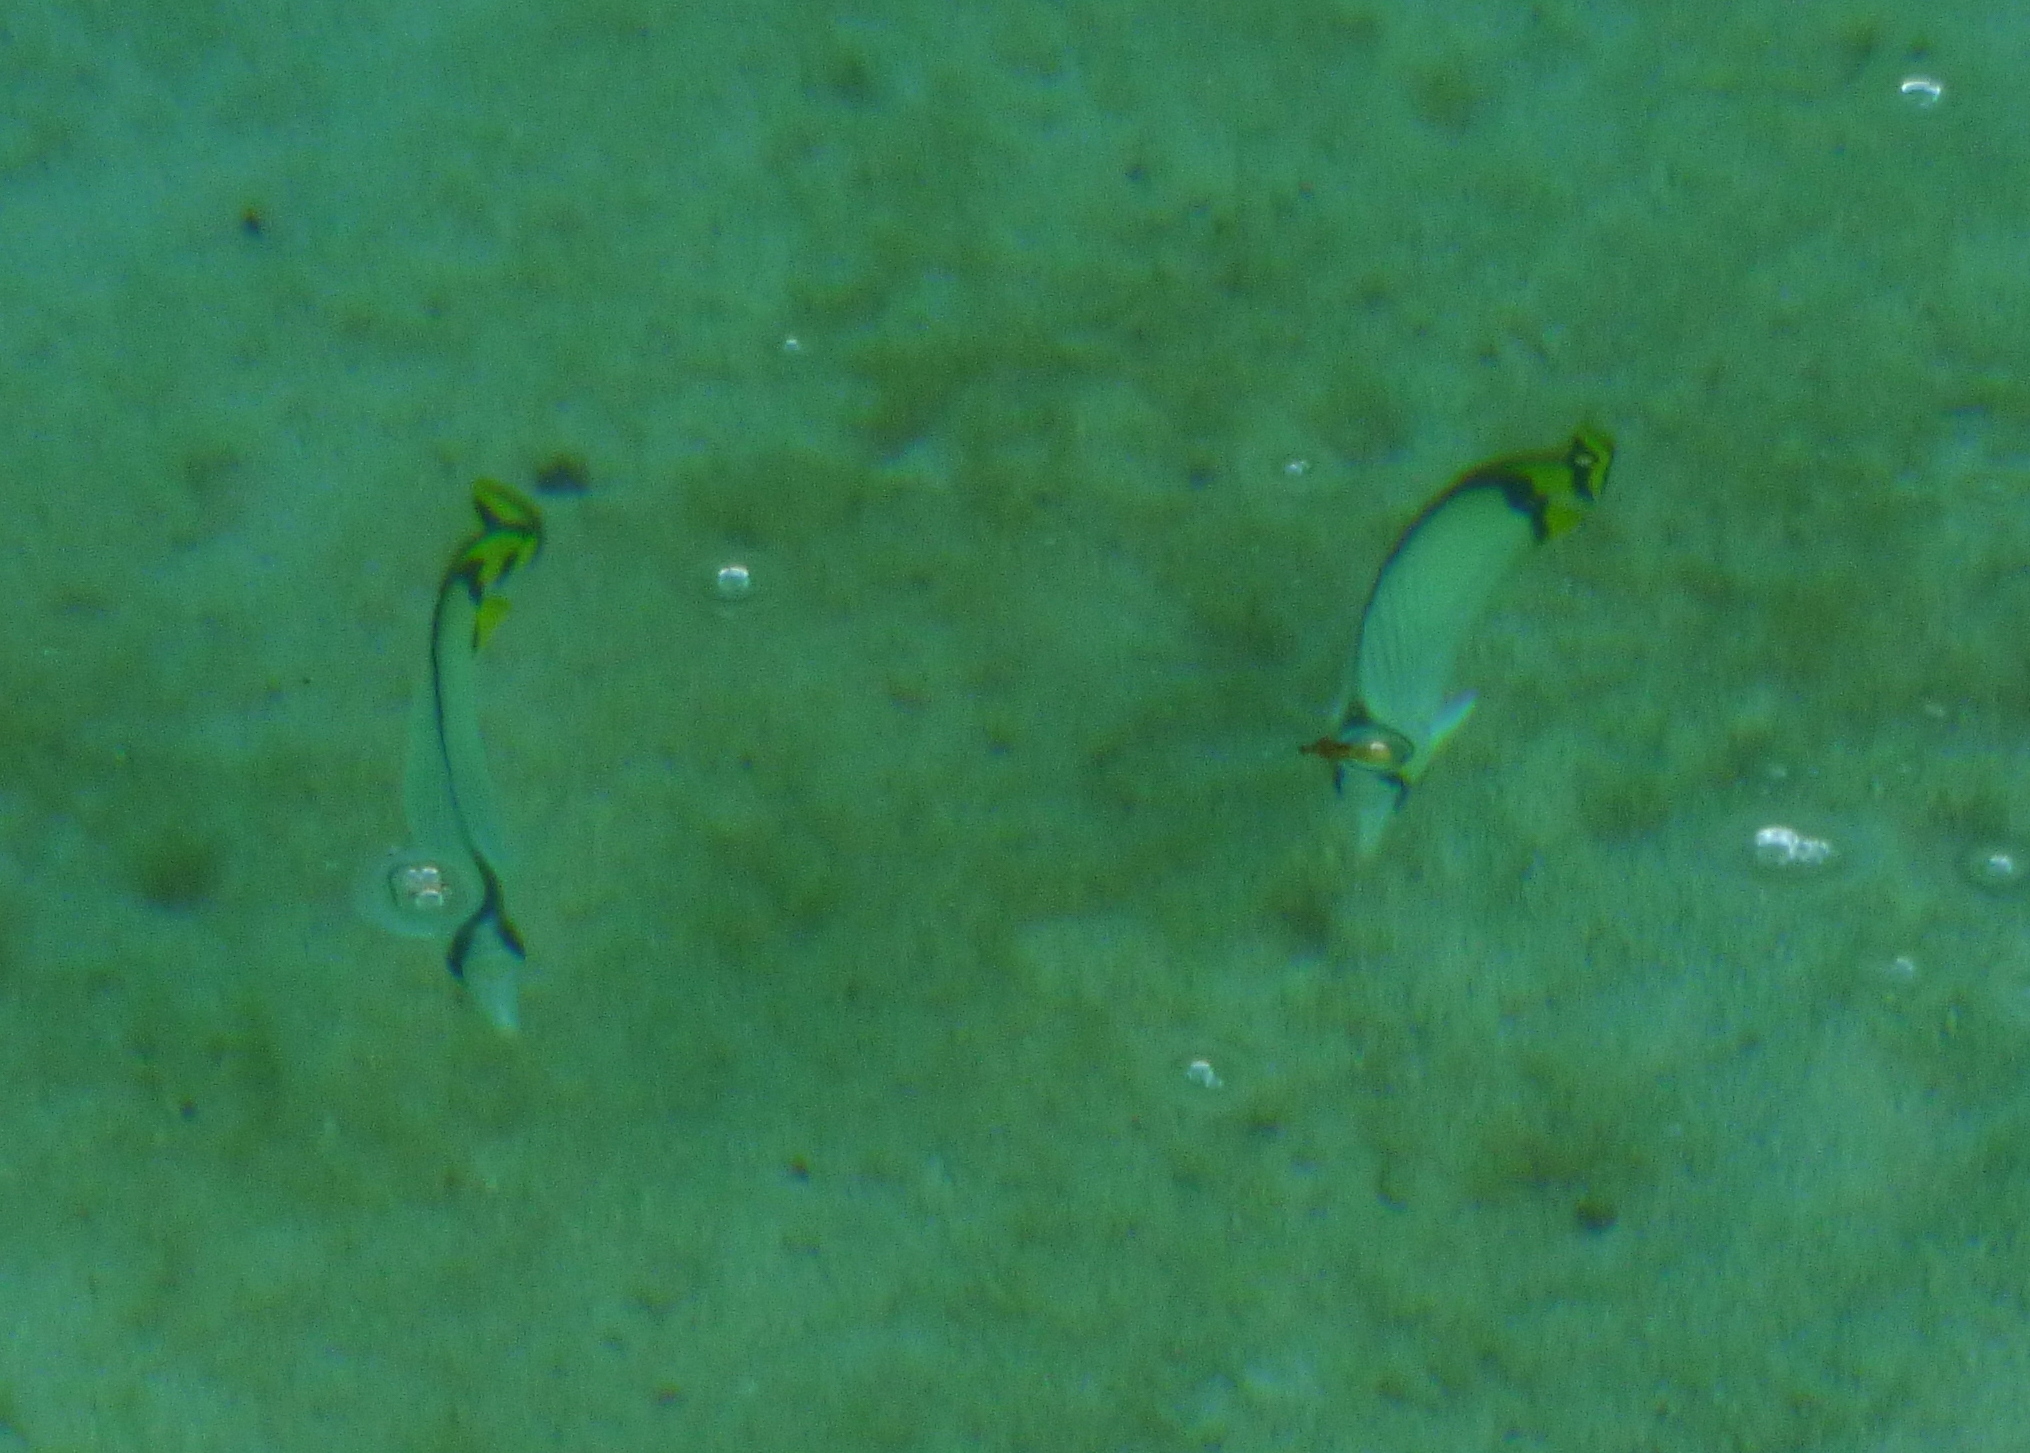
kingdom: Animalia
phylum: Chordata
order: Perciformes
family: Chaetodontidae
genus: Chaetodon
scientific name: Chaetodon vagabundus
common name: Vagabond butterflyfish
